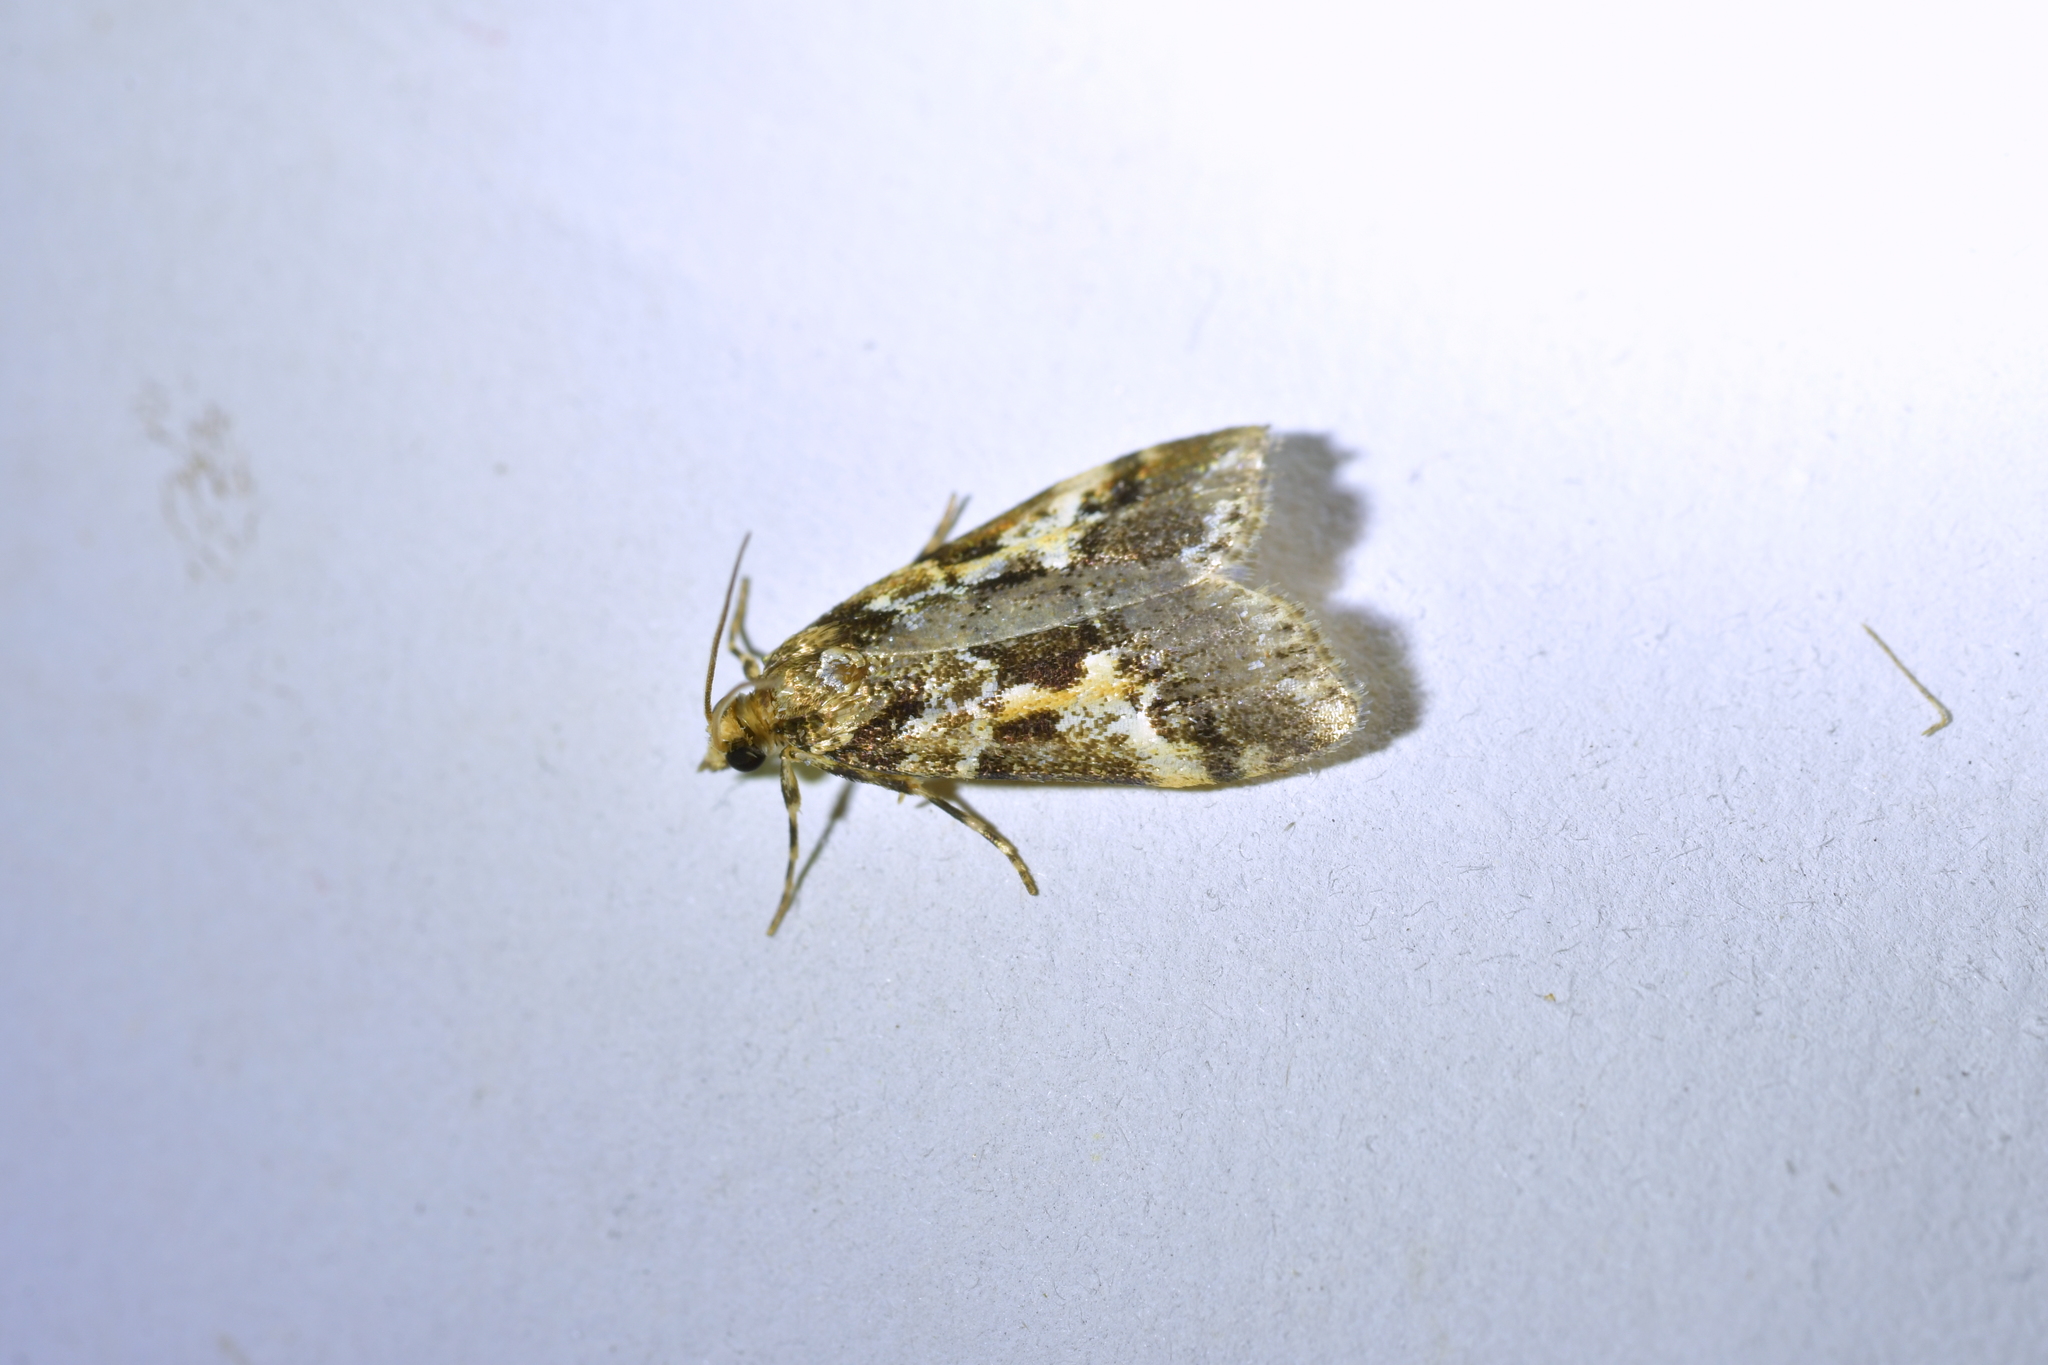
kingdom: Animalia
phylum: Arthropoda
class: Insecta
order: Lepidoptera
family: Crambidae
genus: Eudonia
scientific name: Eudonia characta
